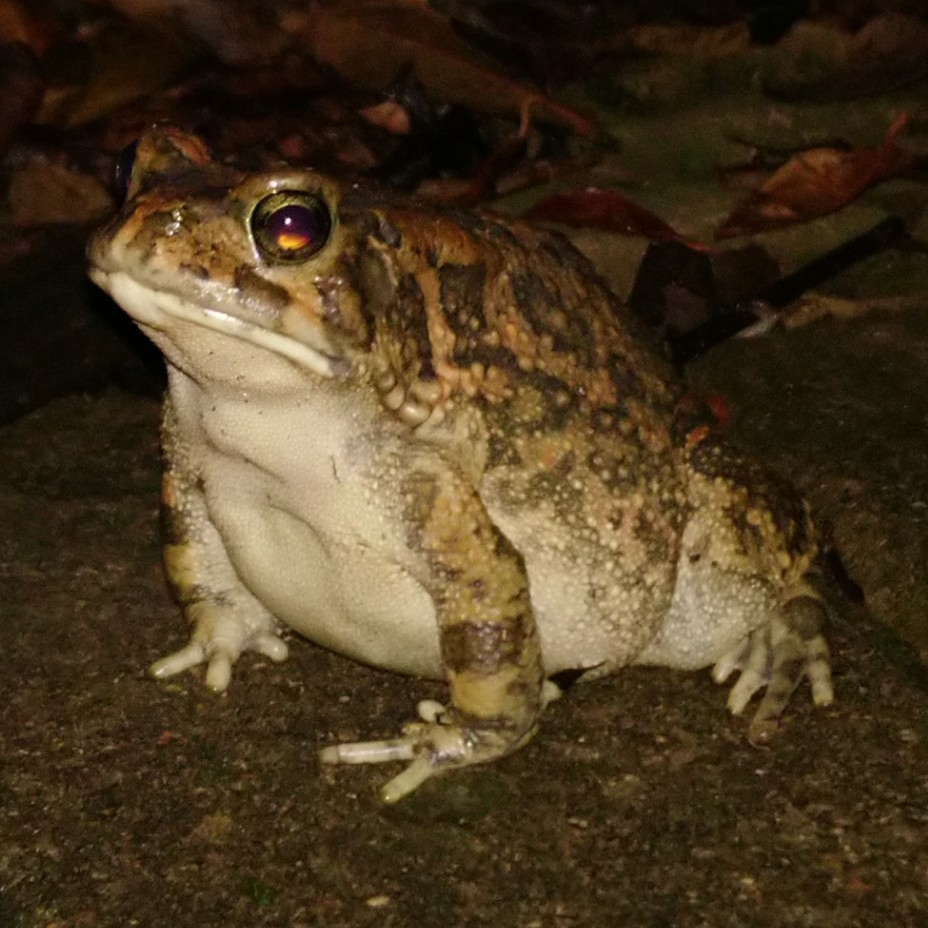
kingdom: Animalia
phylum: Chordata
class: Amphibia
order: Anura
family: Bufonidae
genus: Sclerophrys
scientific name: Sclerophrys gutturalis
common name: African common toad
